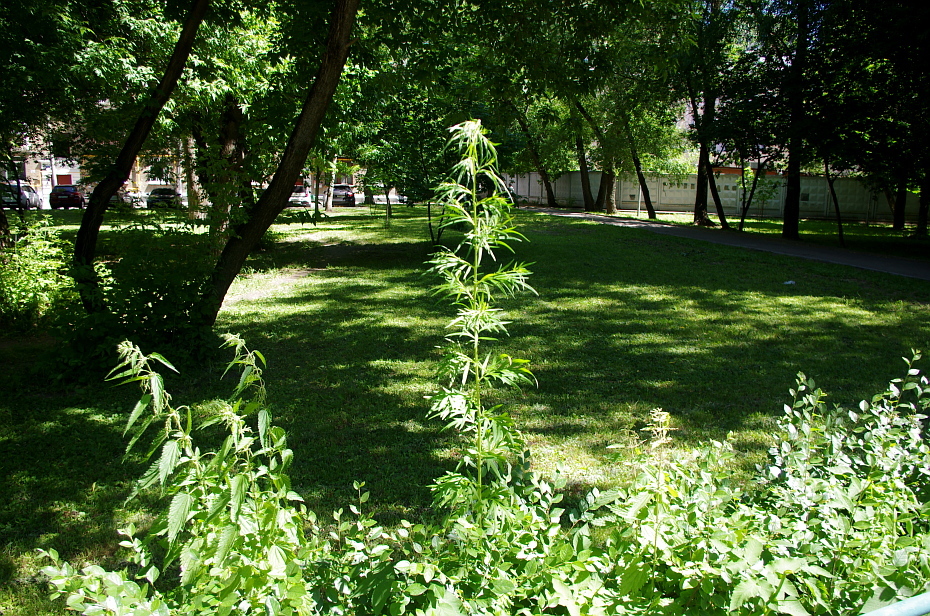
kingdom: Plantae
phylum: Tracheophyta
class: Magnoliopsida
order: Asterales
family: Asteraceae
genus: Artemisia
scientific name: Artemisia vulgaris
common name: Mugwort
